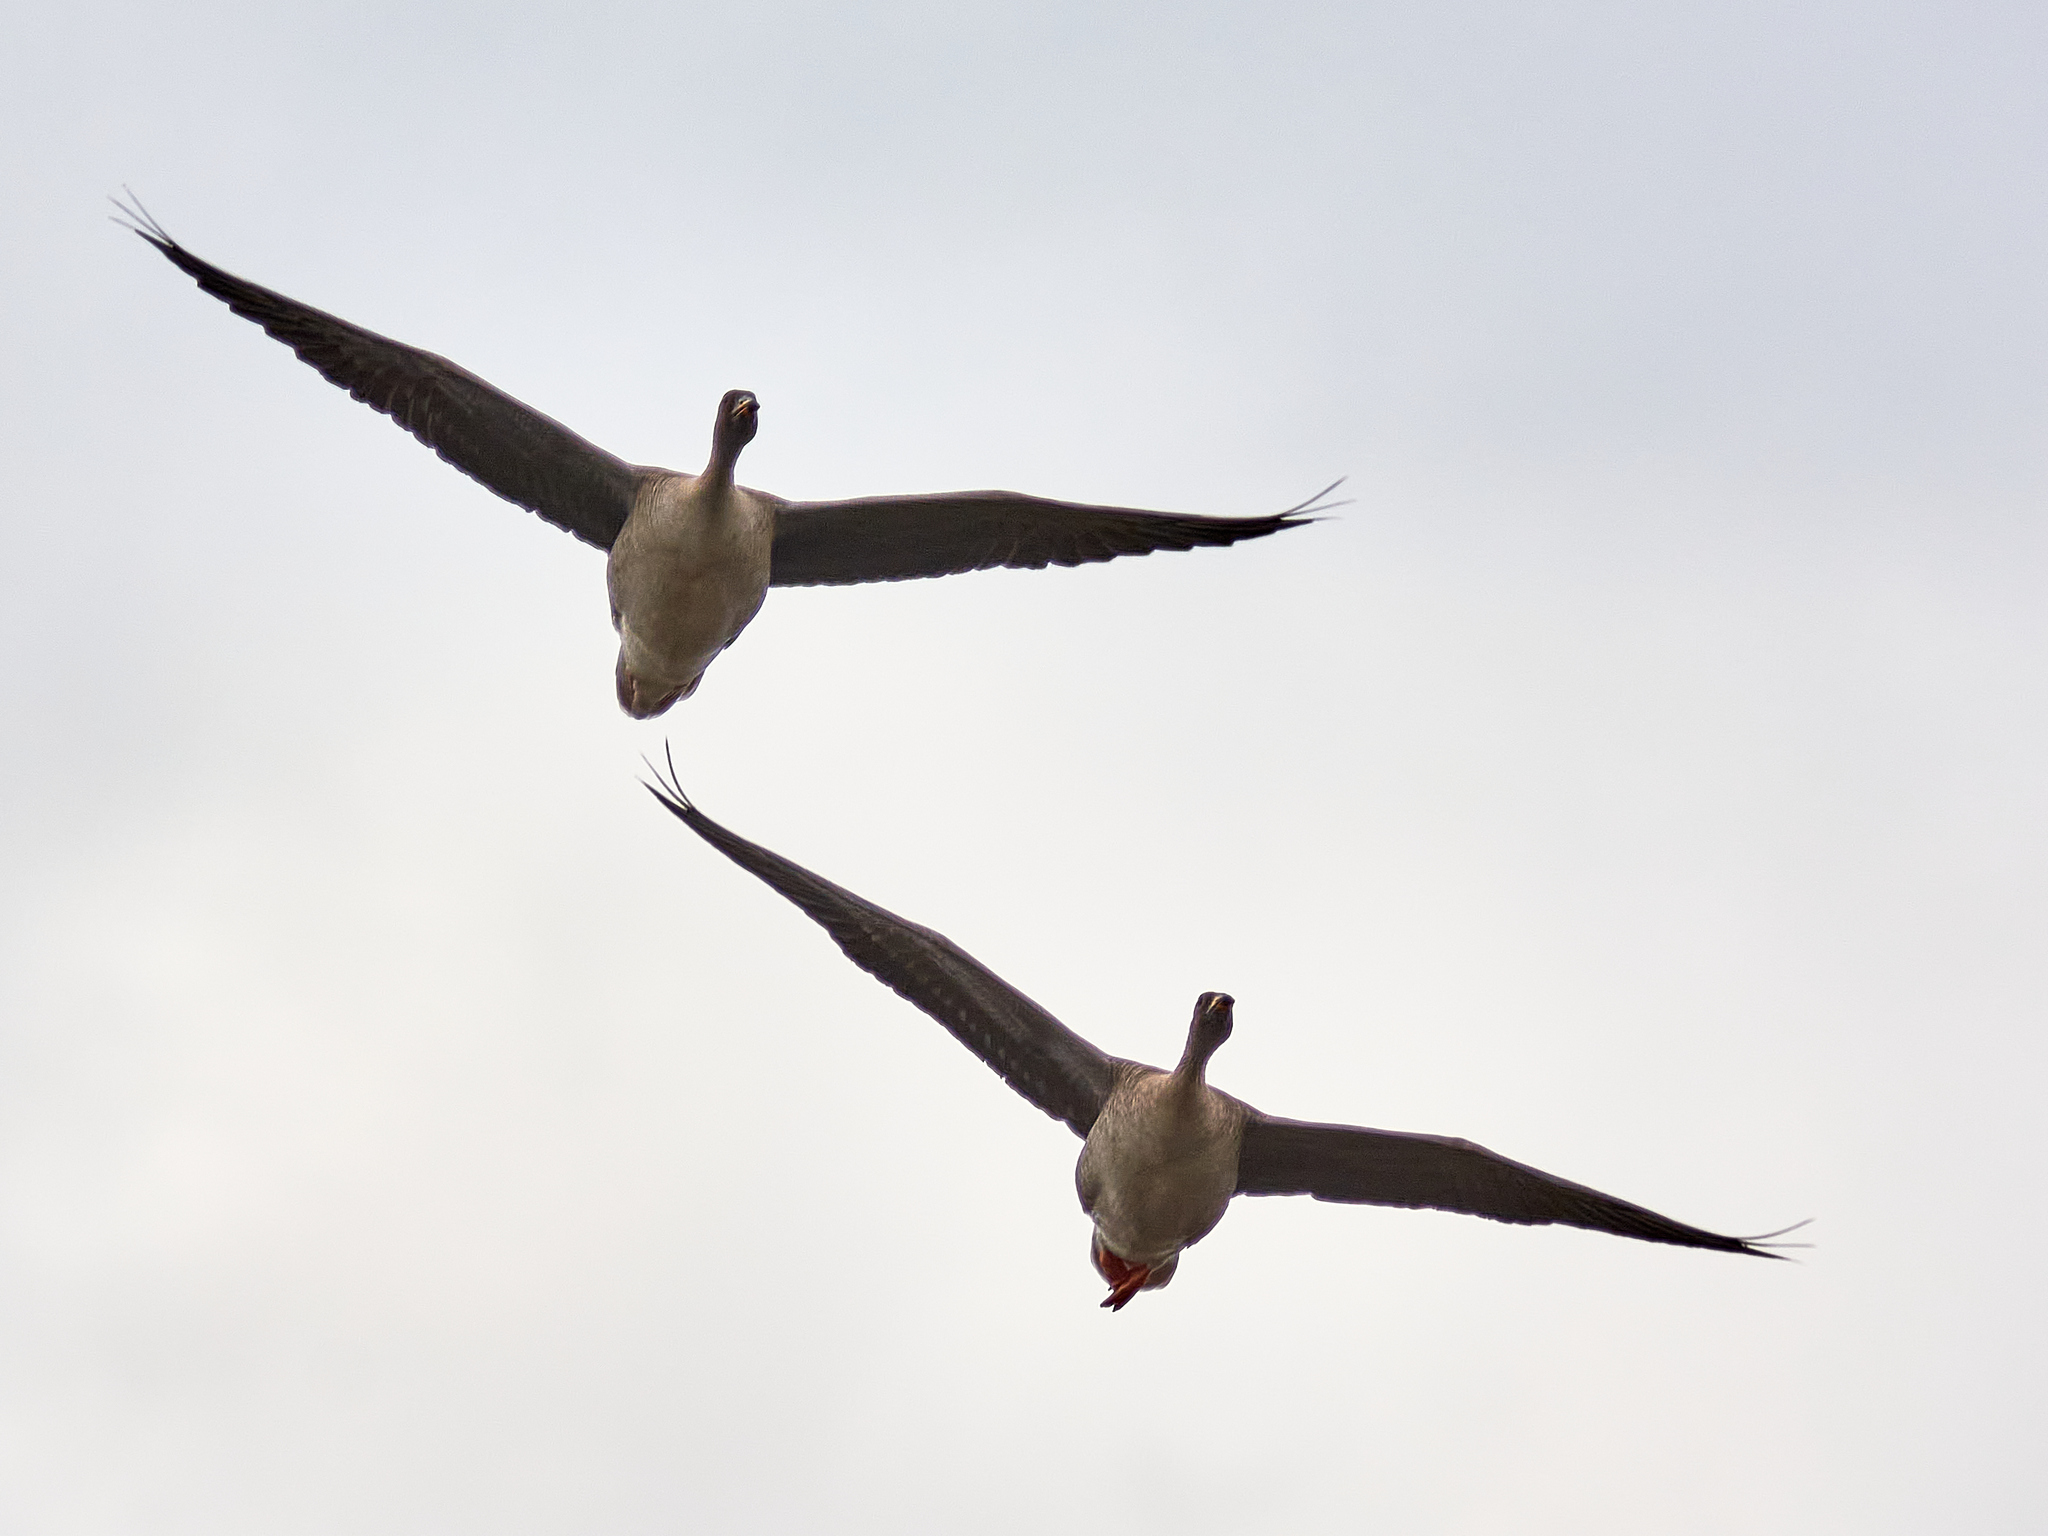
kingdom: Animalia
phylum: Chordata
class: Aves
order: Anseriformes
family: Anatidae
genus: Anser
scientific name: Anser fabalis
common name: Bean goose
